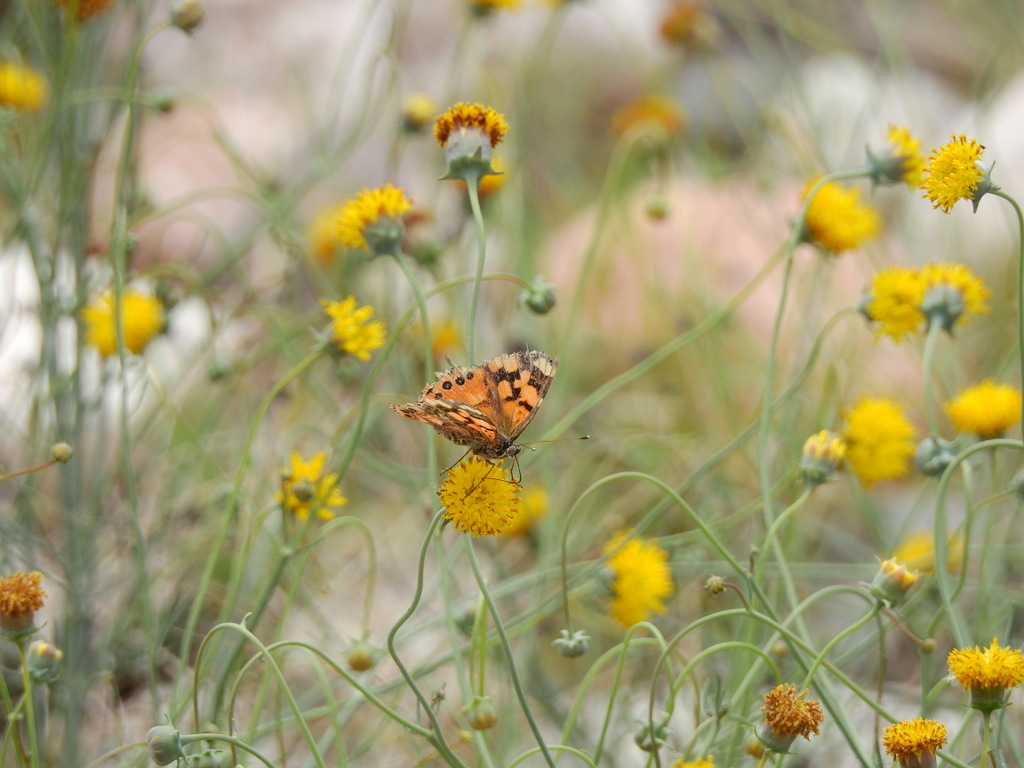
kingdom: Animalia
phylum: Arthropoda
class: Insecta
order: Lepidoptera
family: Nymphalidae
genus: Vanessa
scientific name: Vanessa carye
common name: Subtropical lady
